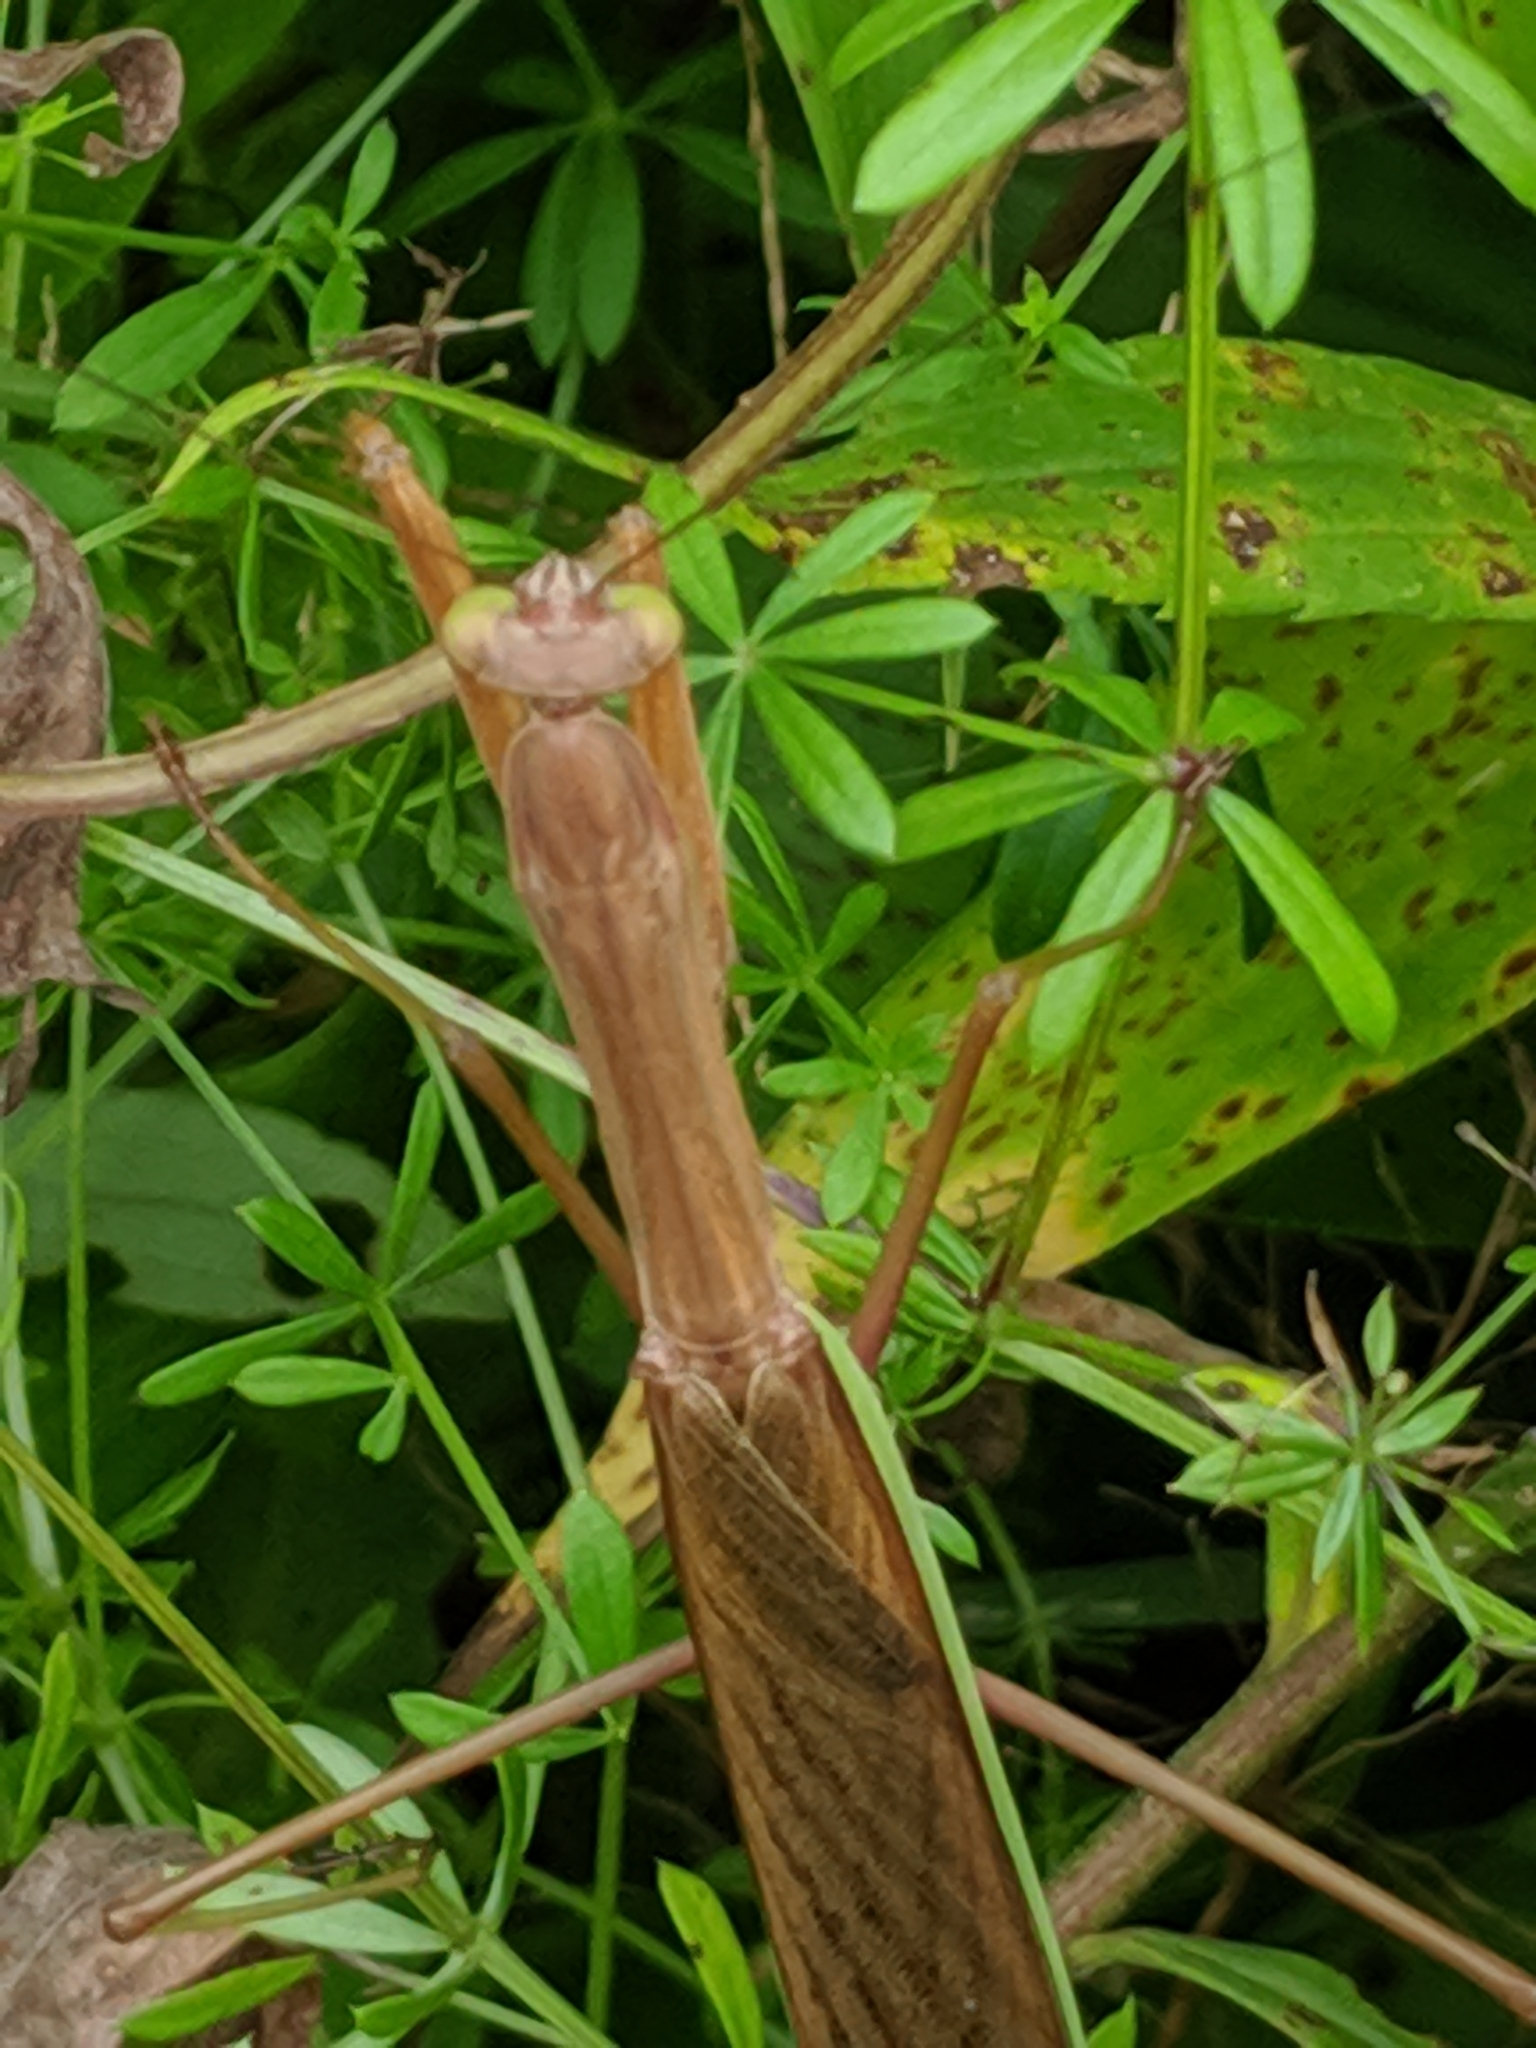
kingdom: Animalia
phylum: Arthropoda
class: Insecta
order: Mantodea
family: Mantidae
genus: Tenodera
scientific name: Tenodera sinensis
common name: Chinese mantis
